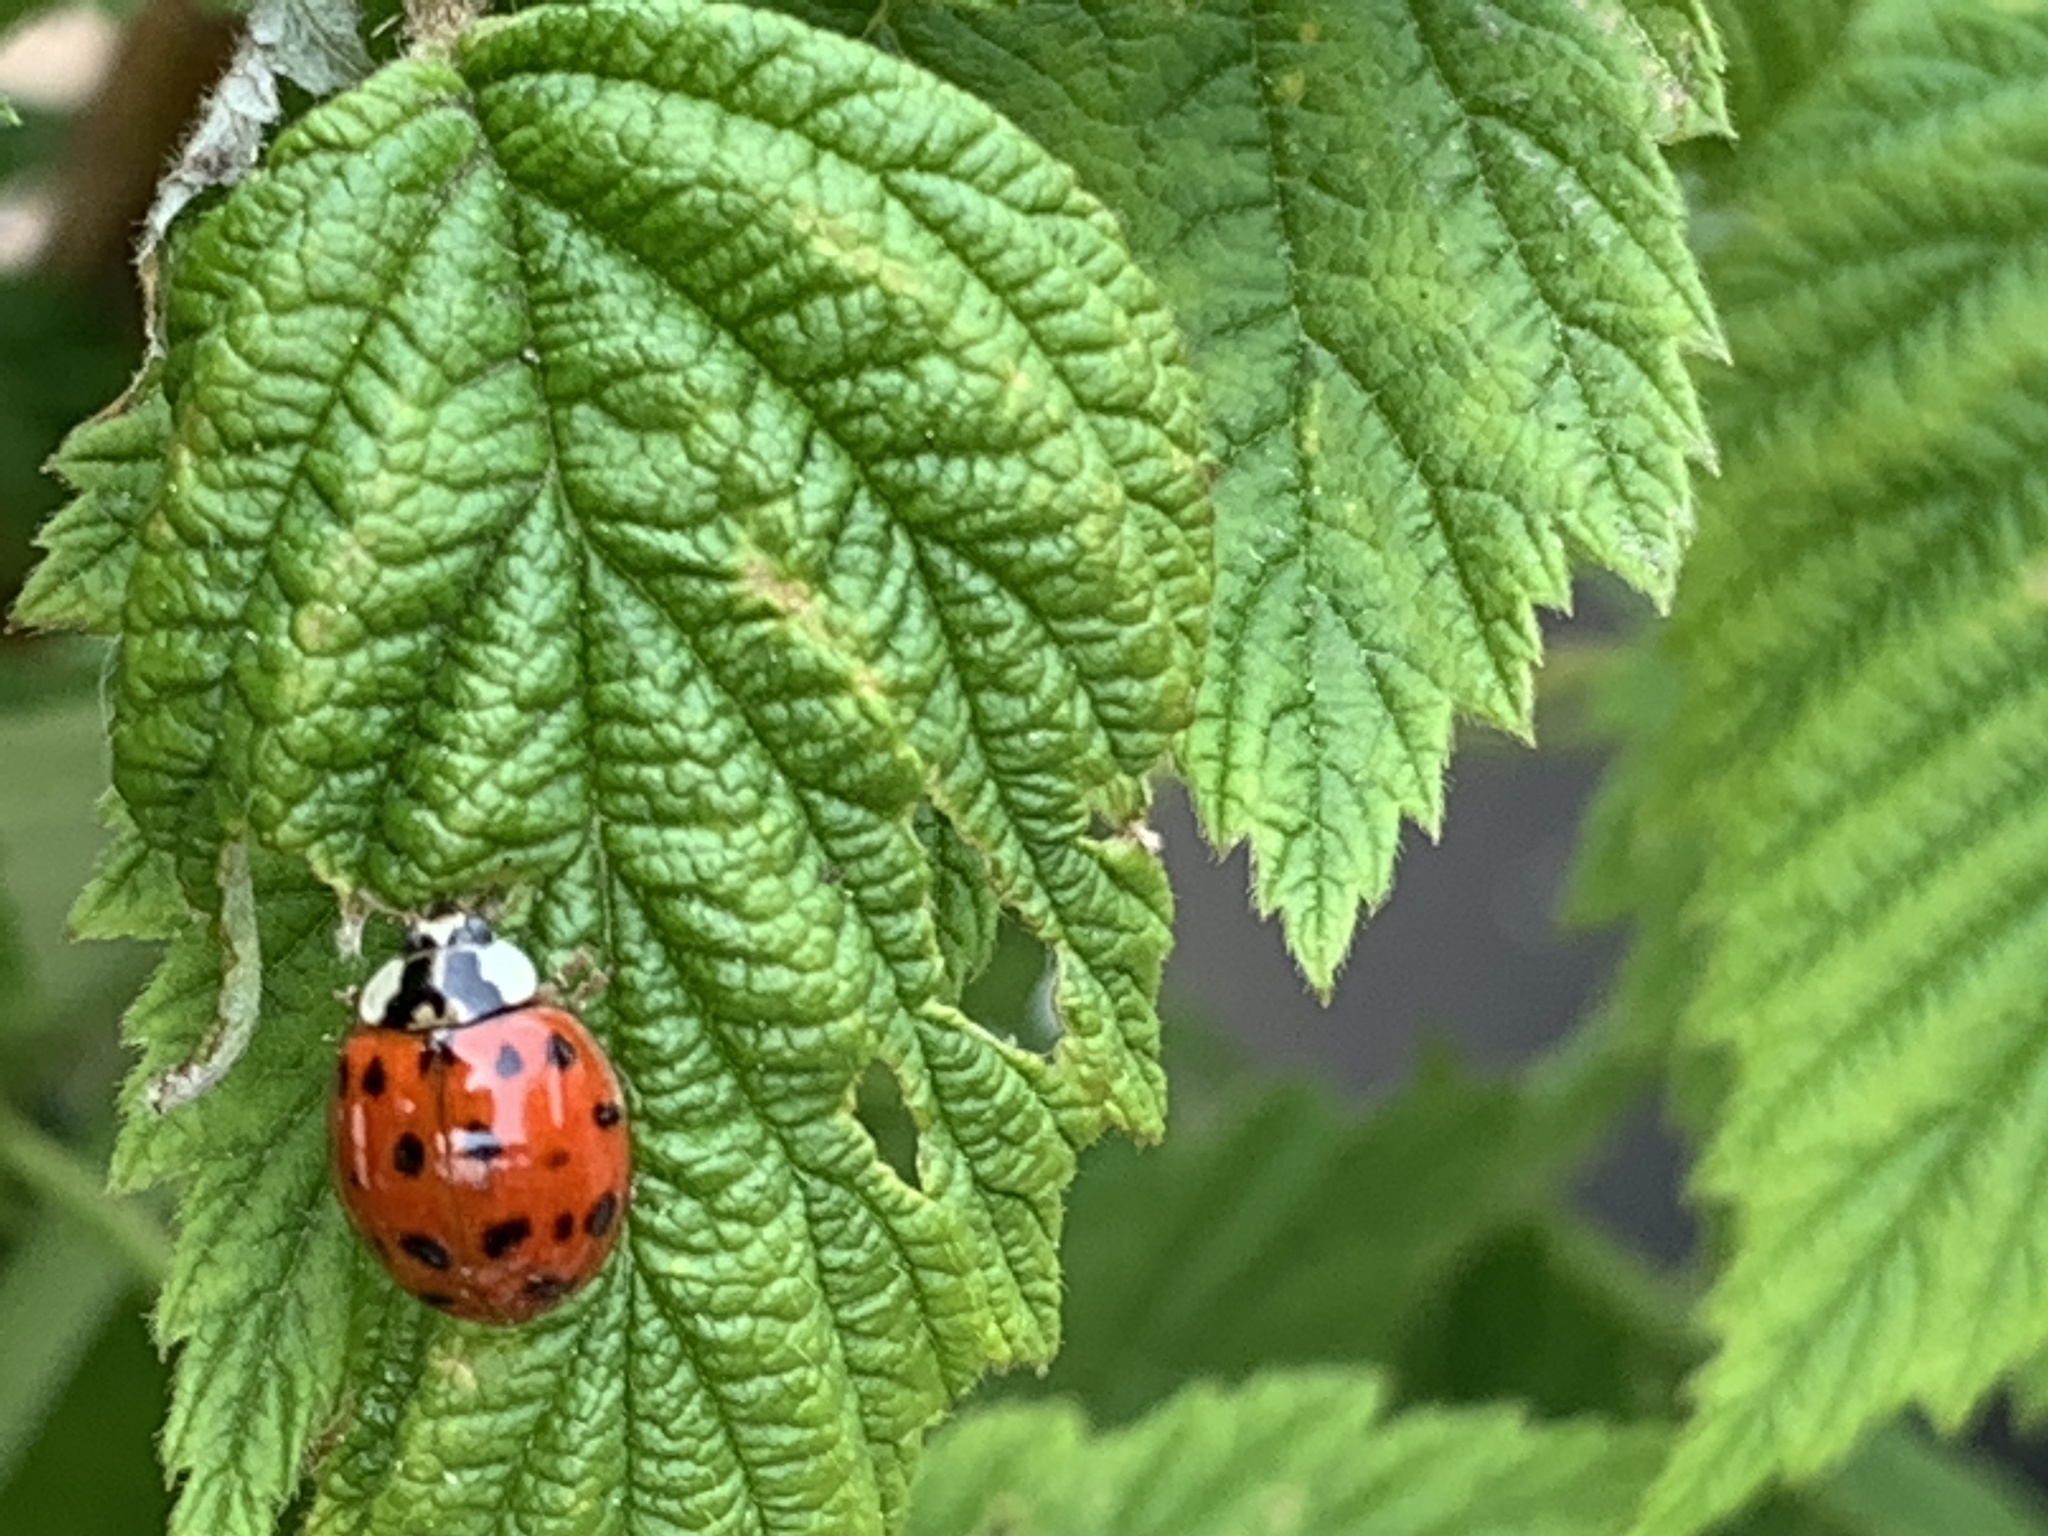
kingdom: Animalia
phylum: Arthropoda
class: Insecta
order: Coleoptera
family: Coccinellidae
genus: Harmonia
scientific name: Harmonia axyridis
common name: Harlequin ladybird
